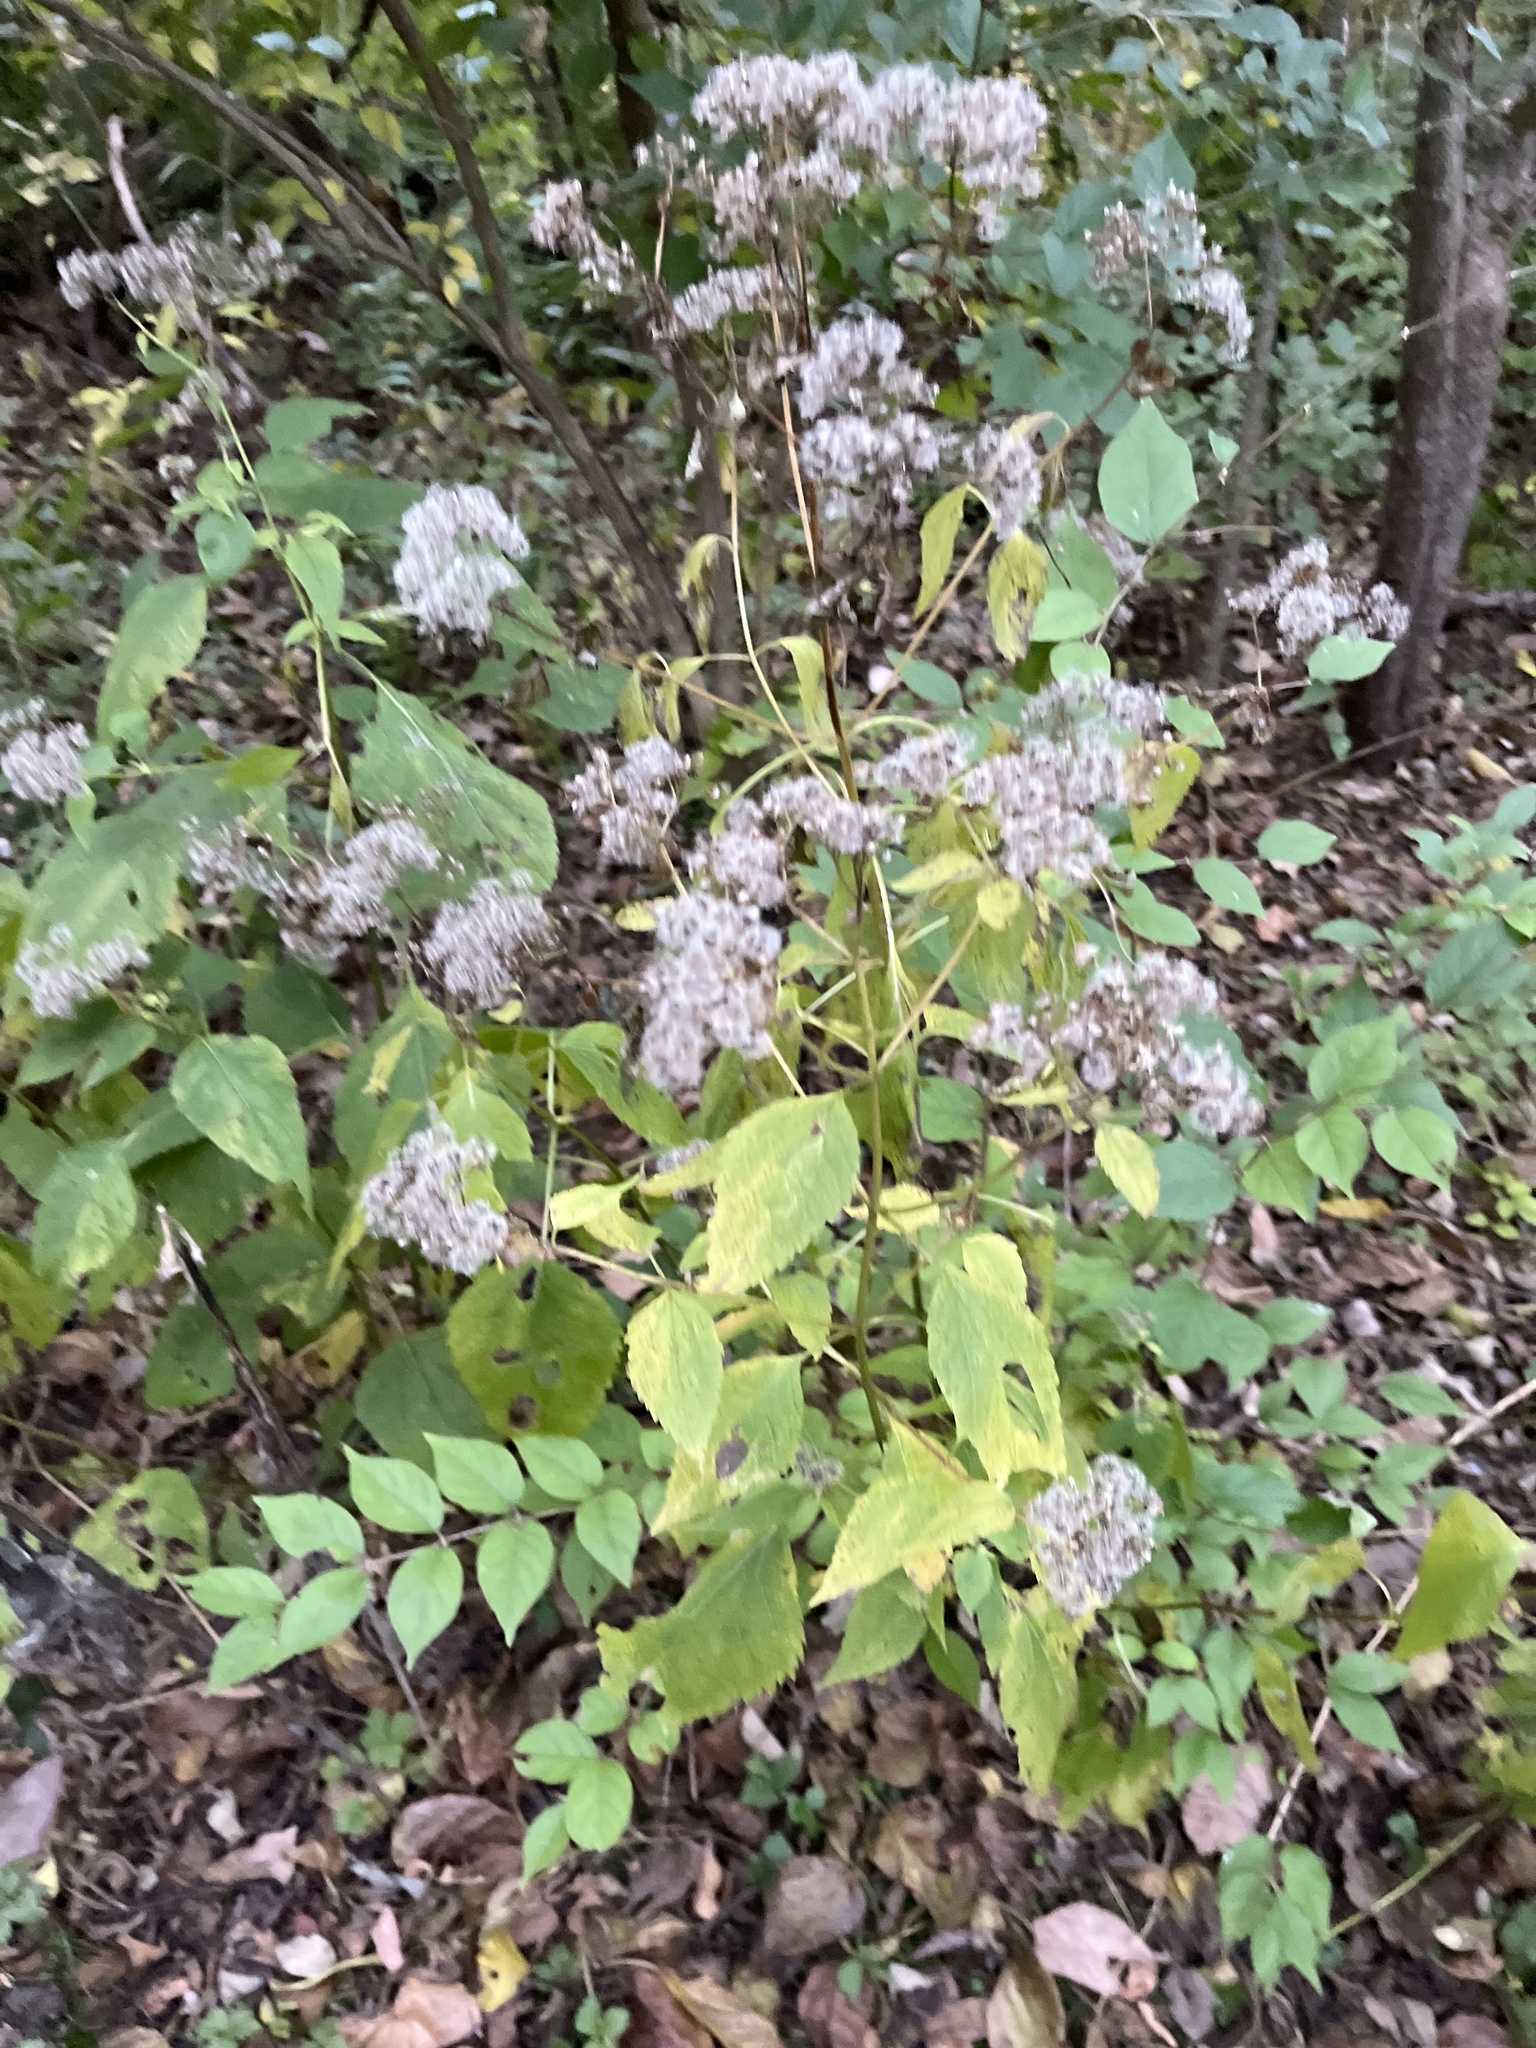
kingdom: Plantae
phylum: Tracheophyta
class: Magnoliopsida
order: Asterales
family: Asteraceae
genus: Ageratina
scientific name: Ageratina altissima
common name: White snakeroot
